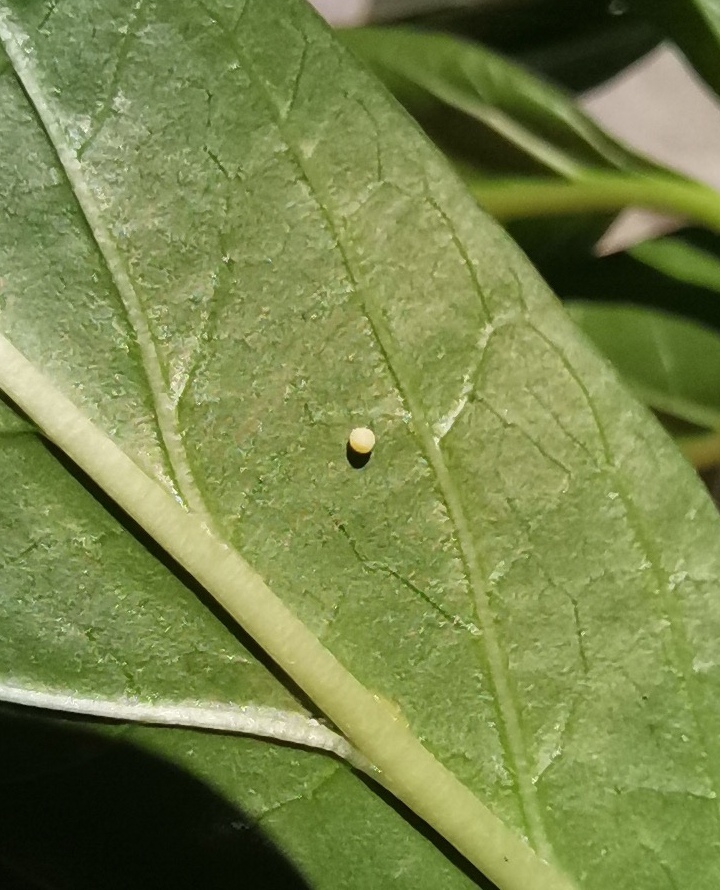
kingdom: Animalia
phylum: Arthropoda
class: Insecta
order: Lepidoptera
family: Nymphalidae
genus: Danaus
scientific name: Danaus plexippus
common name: Monarch
